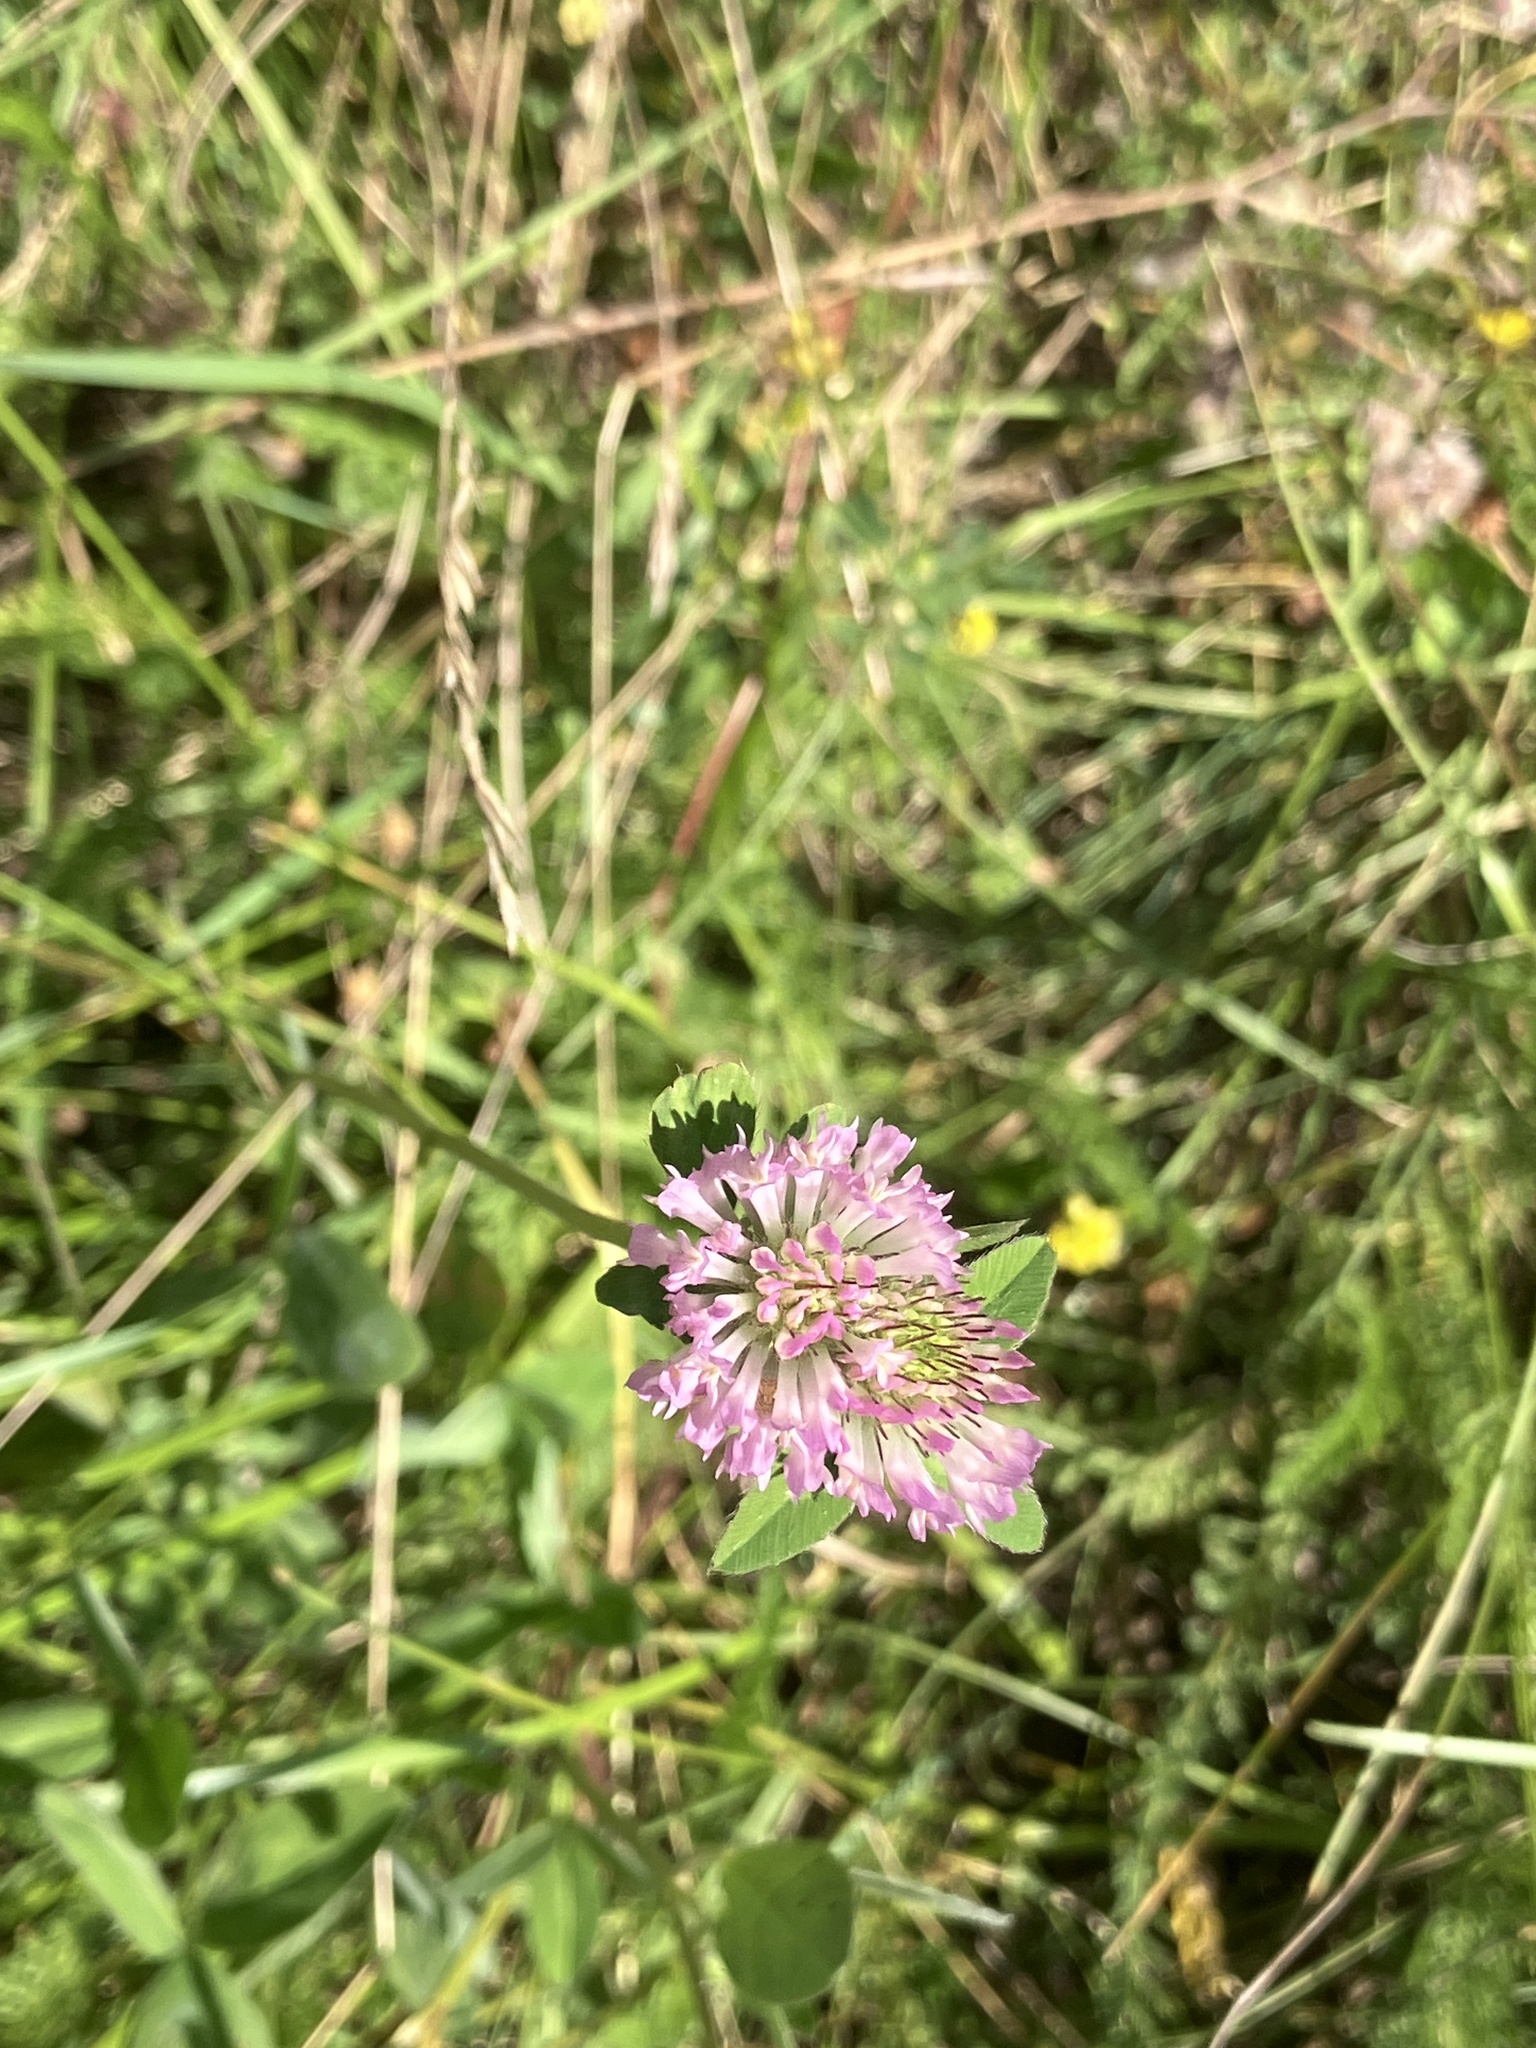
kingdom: Plantae
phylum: Tracheophyta
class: Magnoliopsida
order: Fabales
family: Fabaceae
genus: Trifolium
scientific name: Trifolium pratense
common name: Red clover
